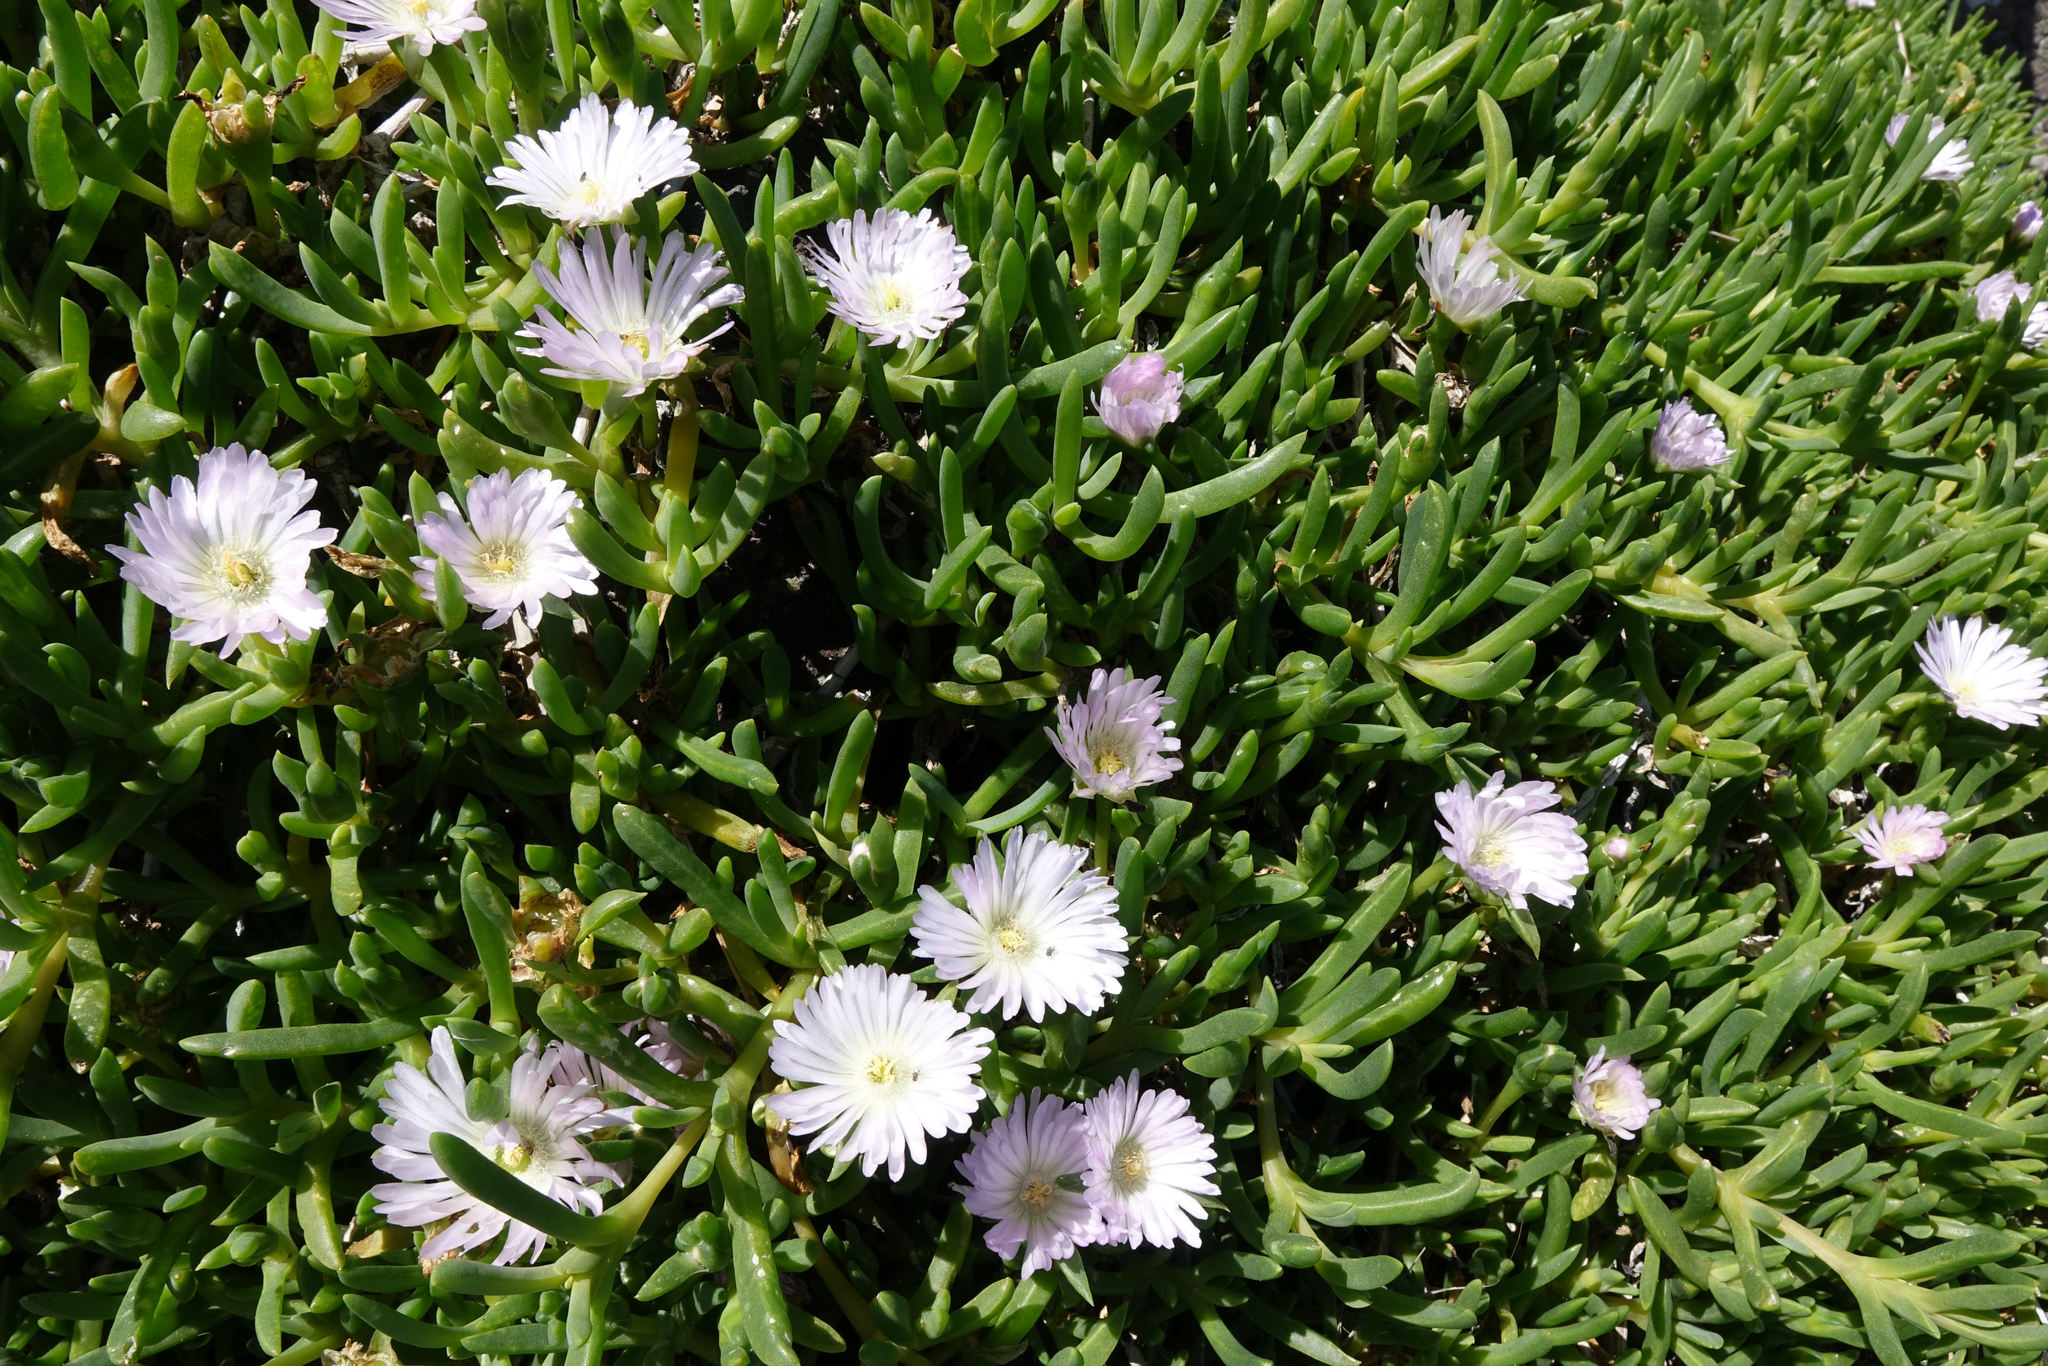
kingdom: Plantae
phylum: Tracheophyta
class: Magnoliopsida
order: Caryophyllales
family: Aizoaceae
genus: Disphyma
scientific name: Disphyma australe
